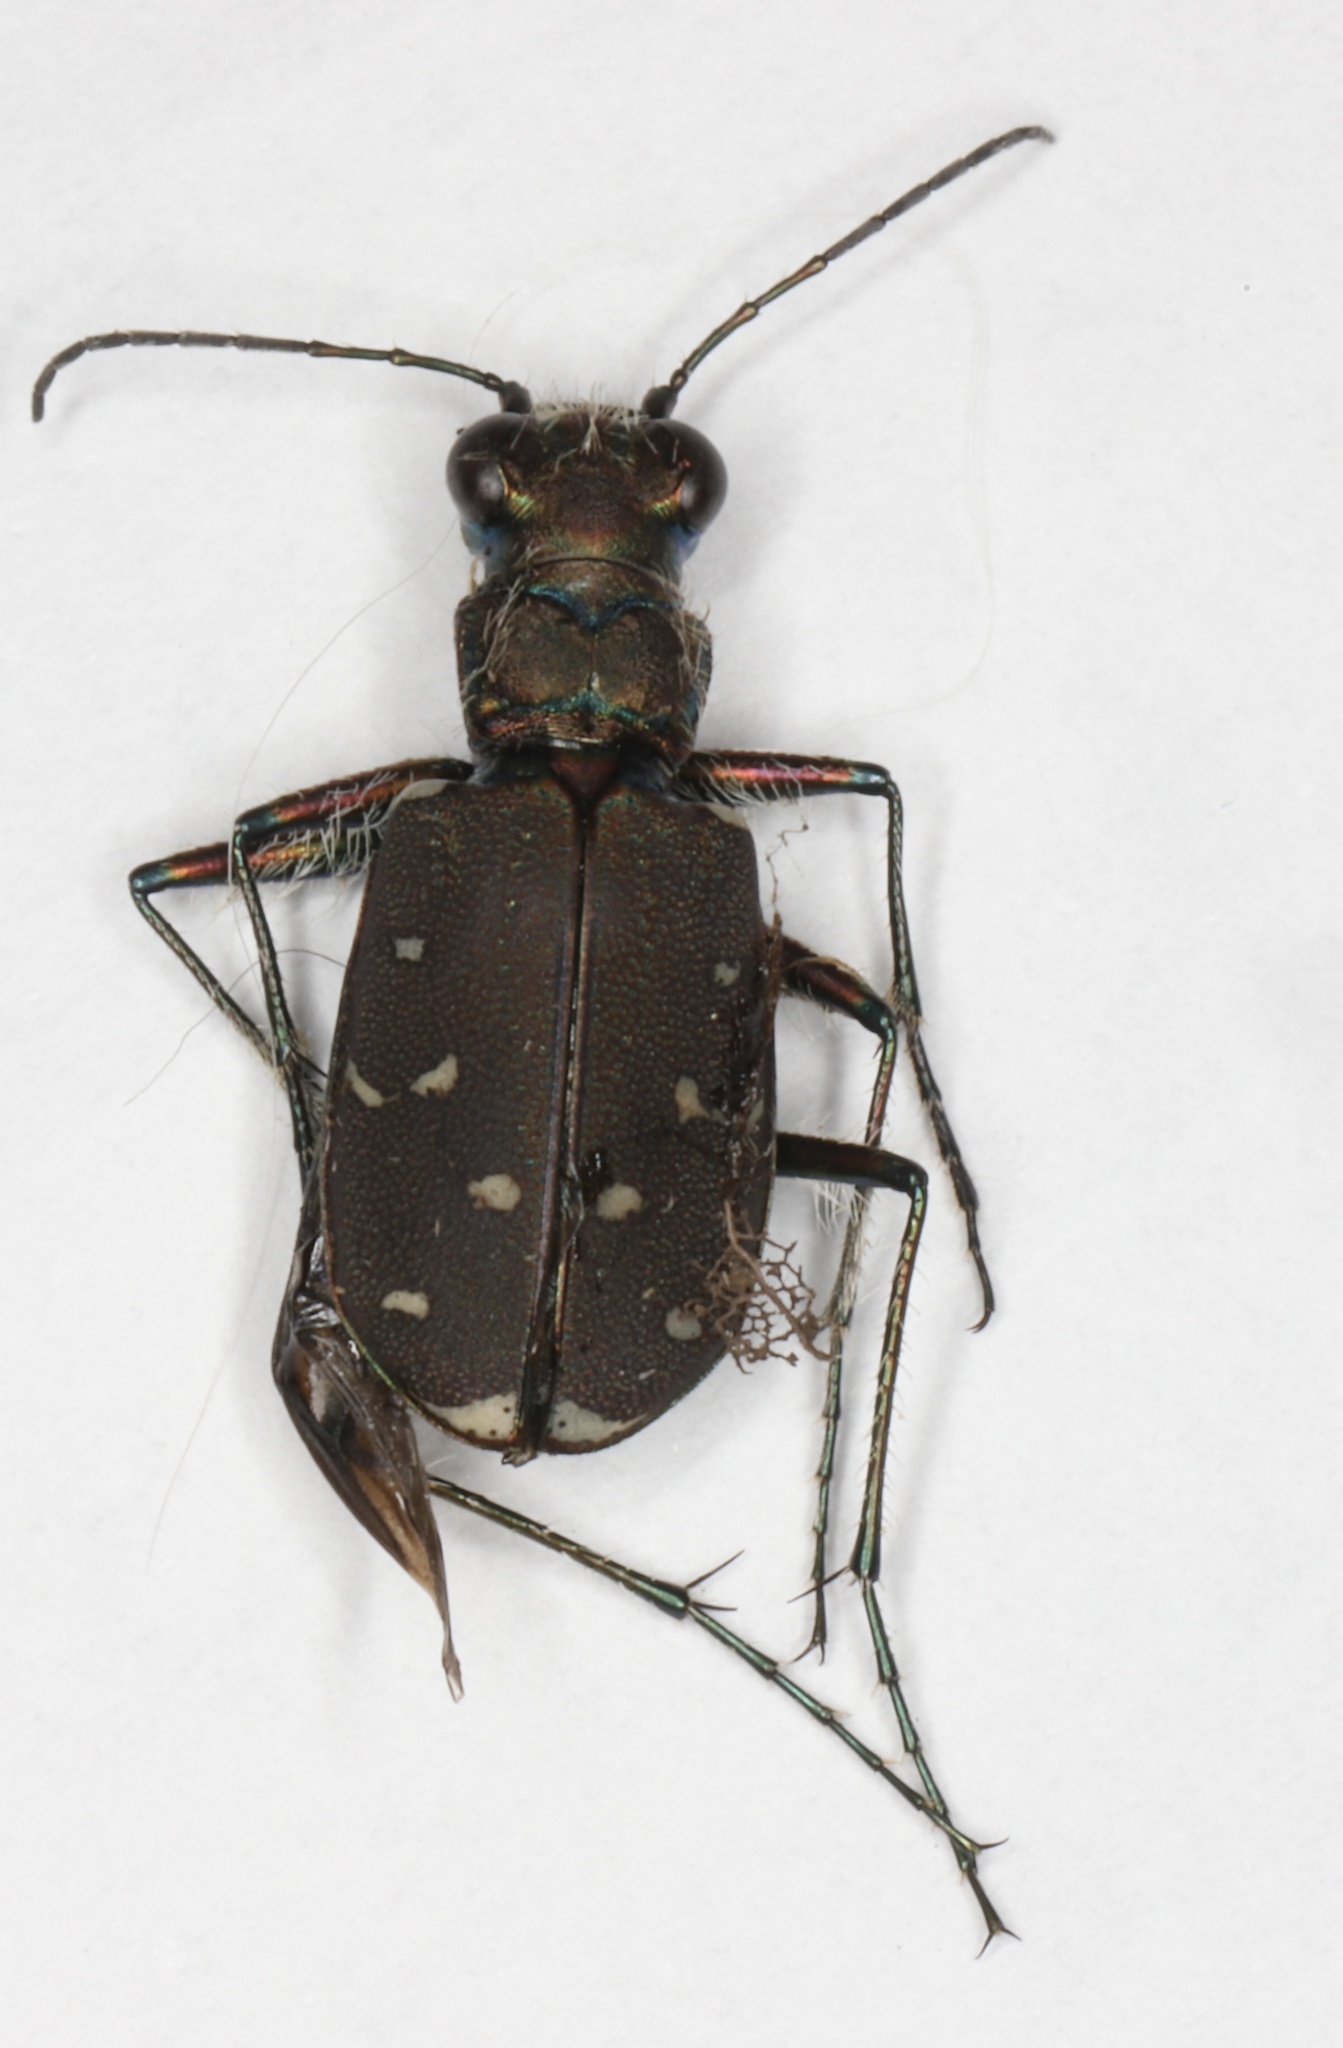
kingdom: Animalia
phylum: Arthropoda
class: Insecta
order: Coleoptera
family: Carabidae
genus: Cicindela
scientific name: Cicindela duodecimguttata
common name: Twelve-spotted tiger beetle
